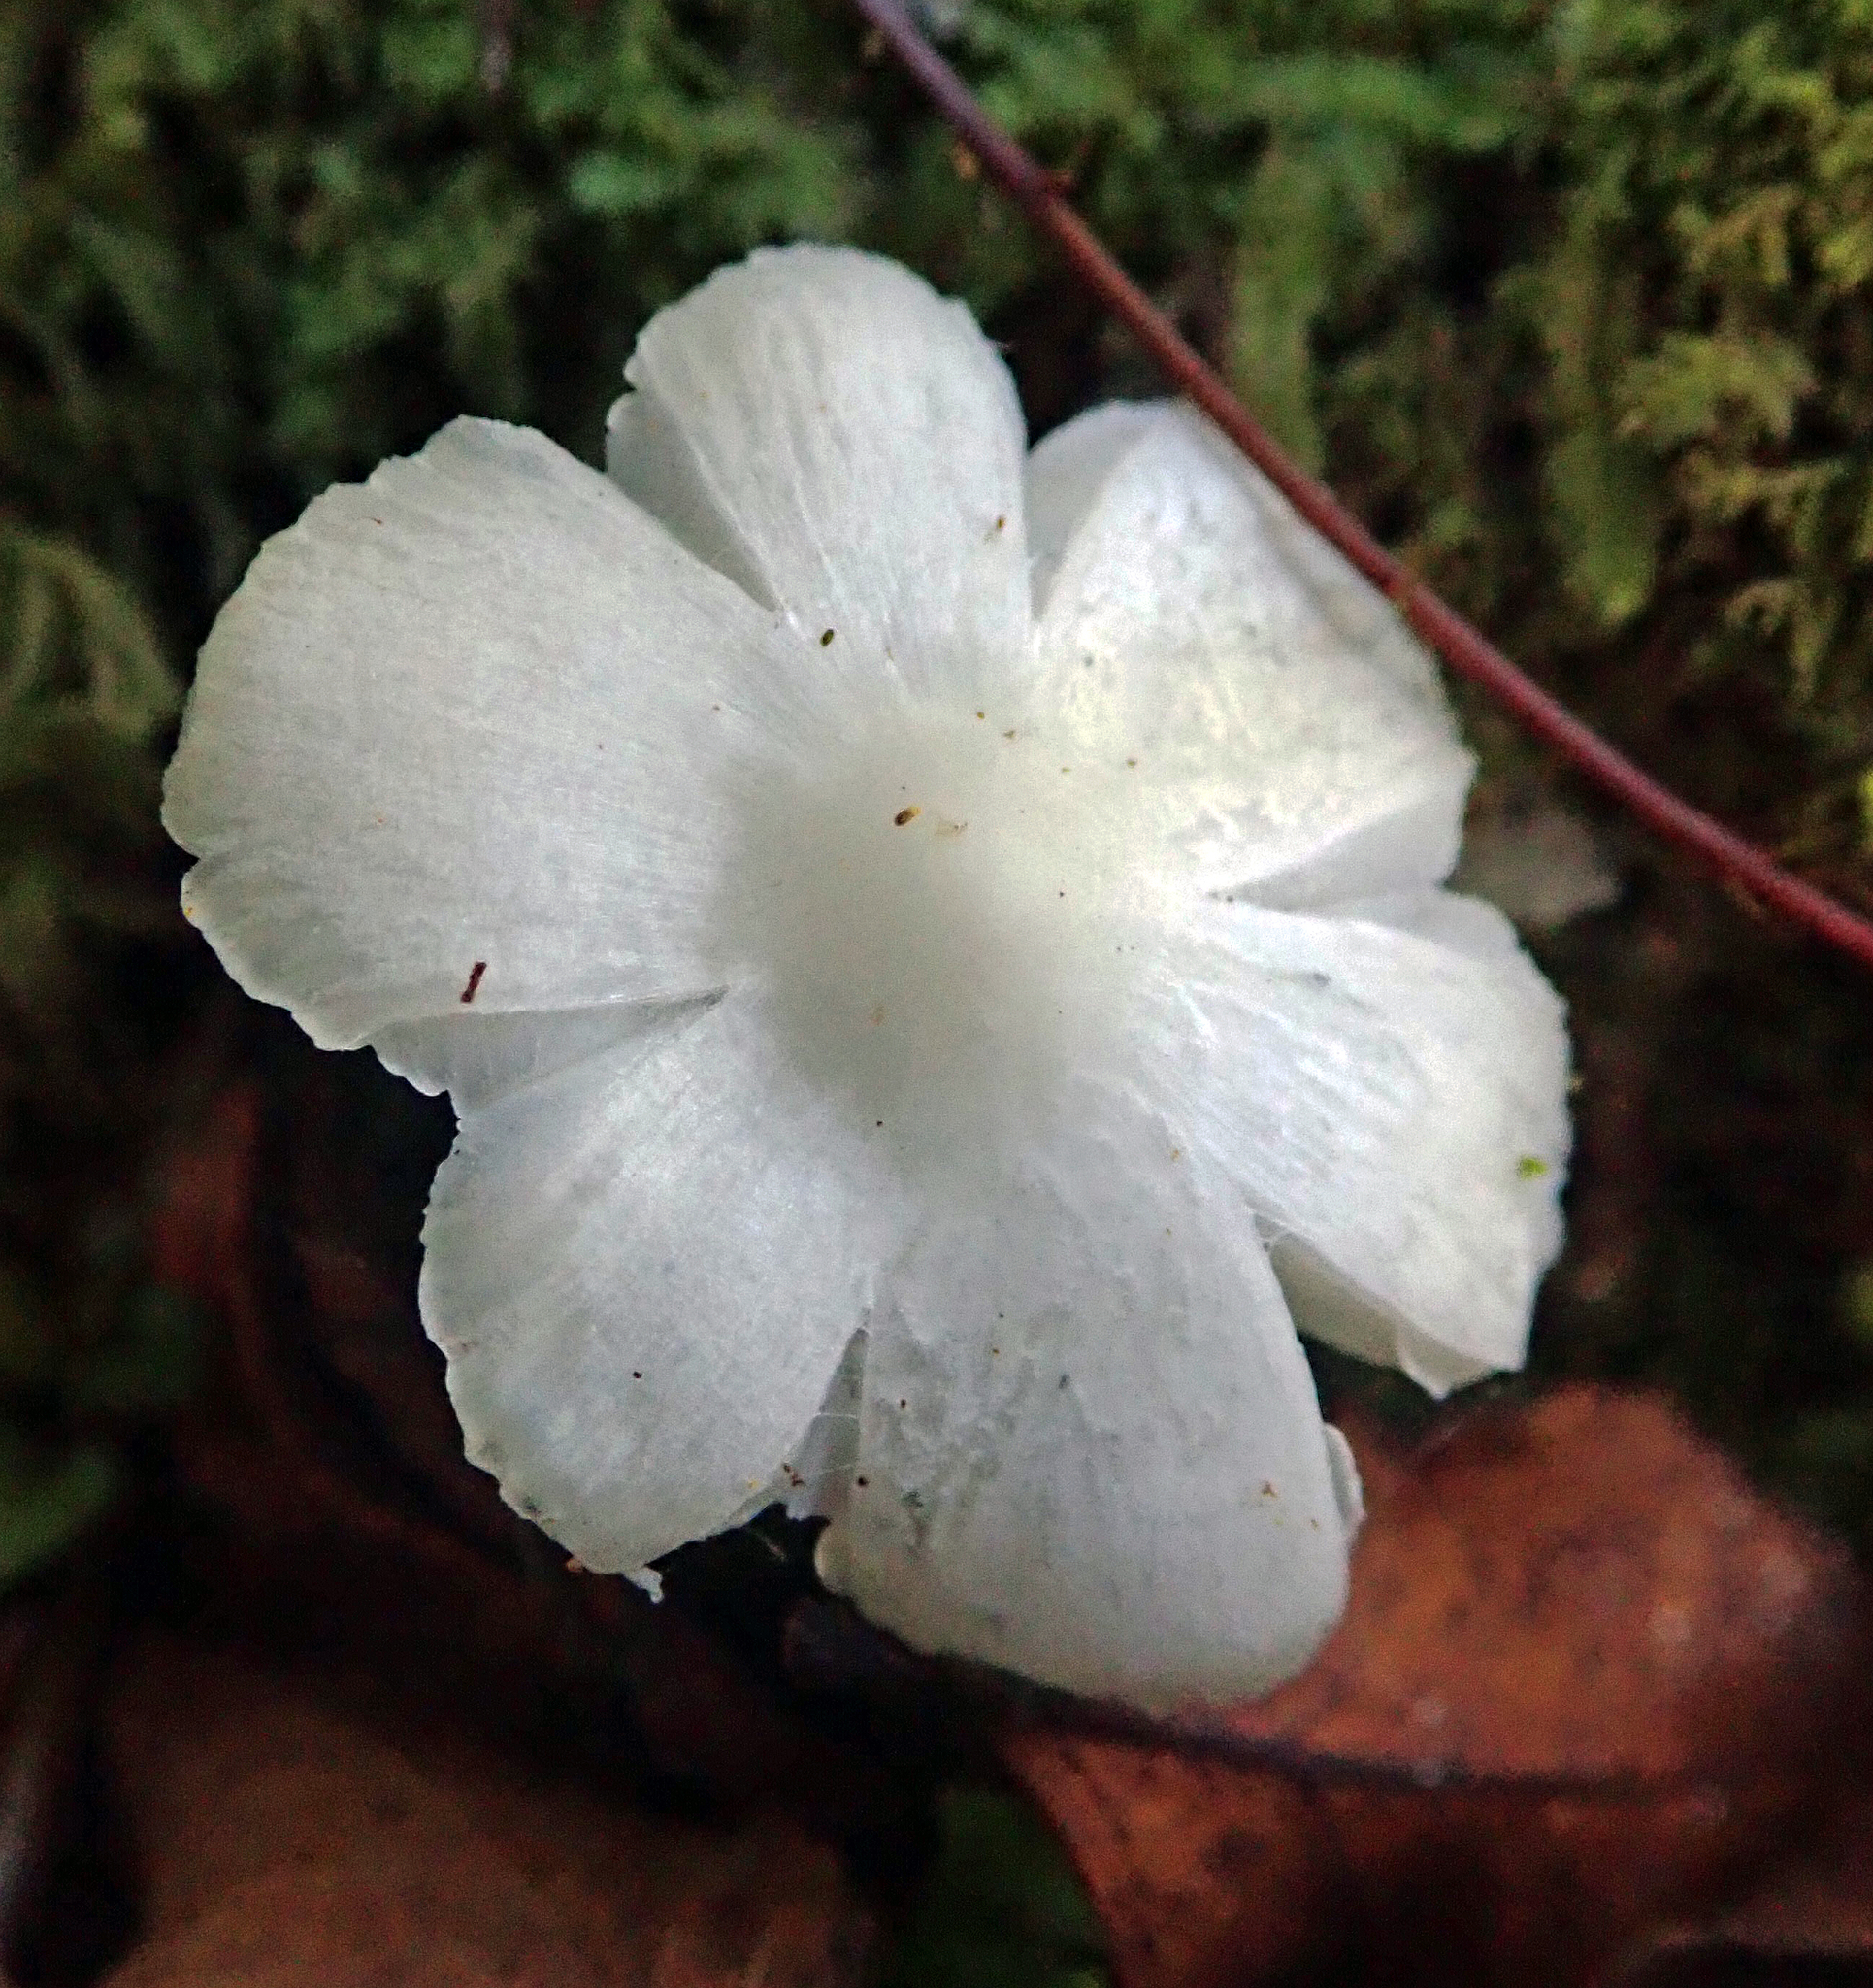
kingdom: Fungi
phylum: Basidiomycota
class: Agaricomycetes
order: Agaricales
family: Hygrophoraceae
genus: Humidicutis
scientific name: Humidicutis mavis
